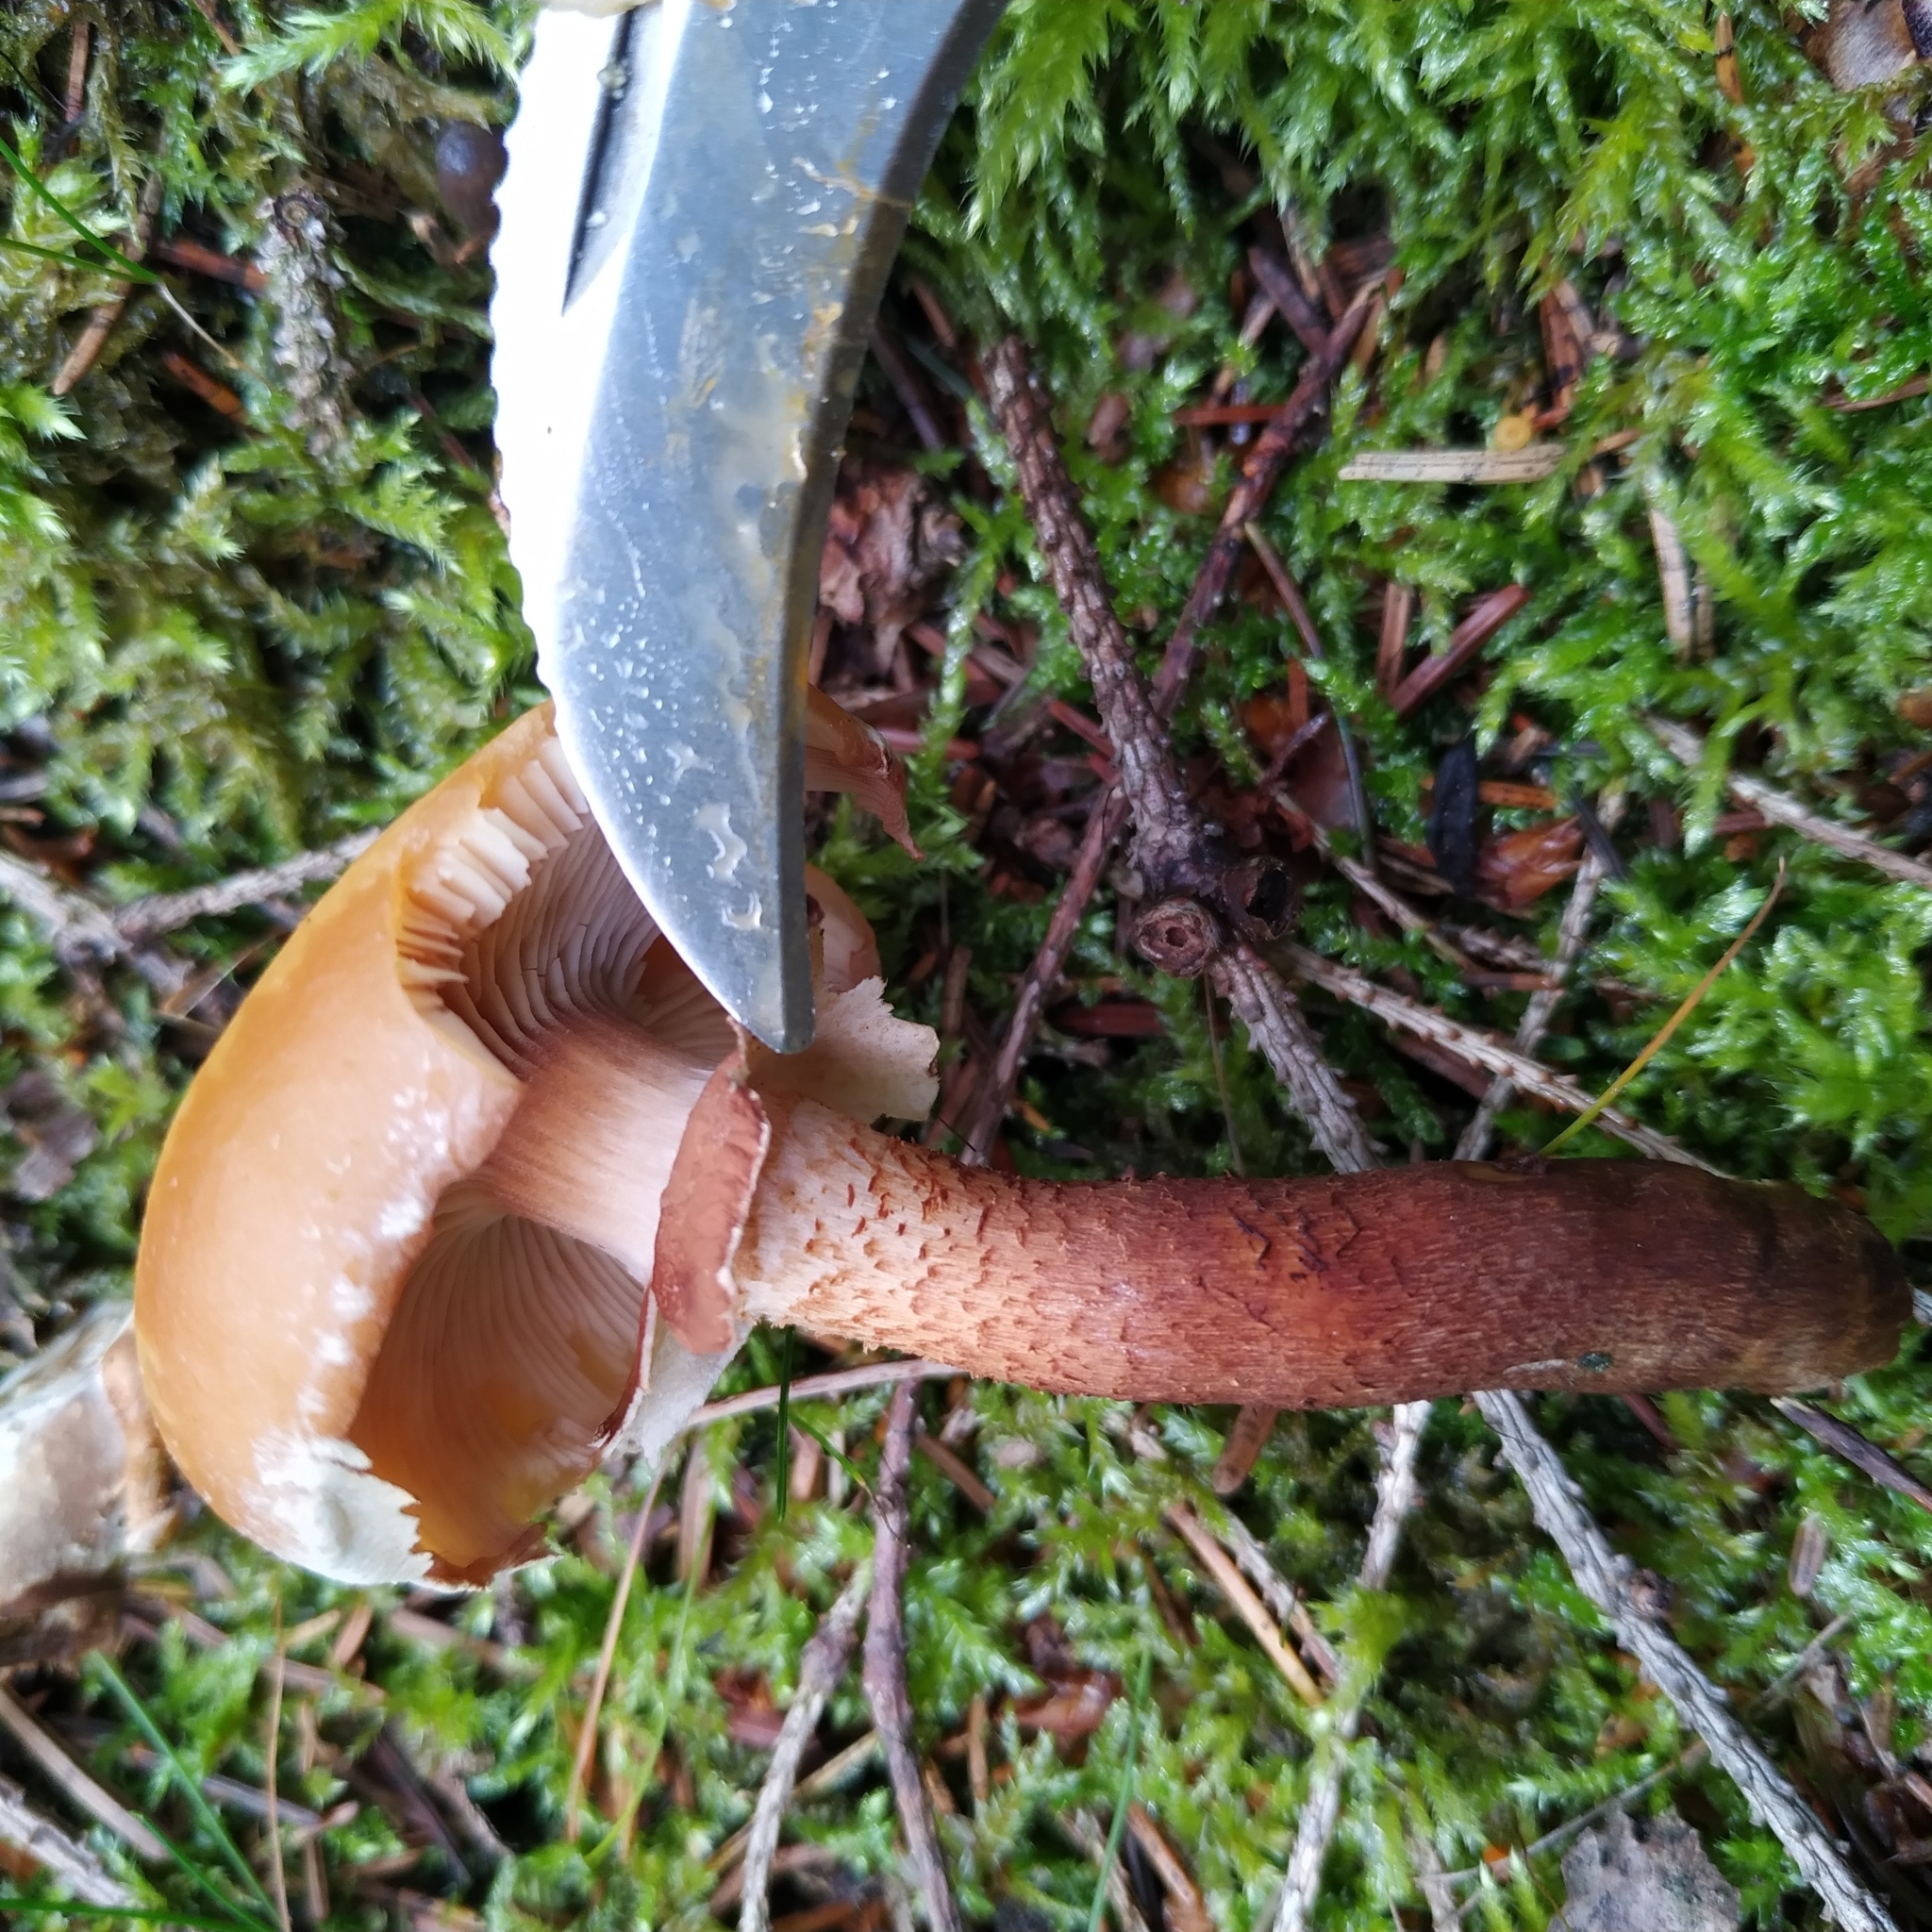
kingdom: Fungi
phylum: Basidiomycota
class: Agaricomycetes
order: Agaricales
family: Strophariaceae
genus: Kuehneromyces
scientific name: Kuehneromyces mutabilis
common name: Sheathed woodtuft
